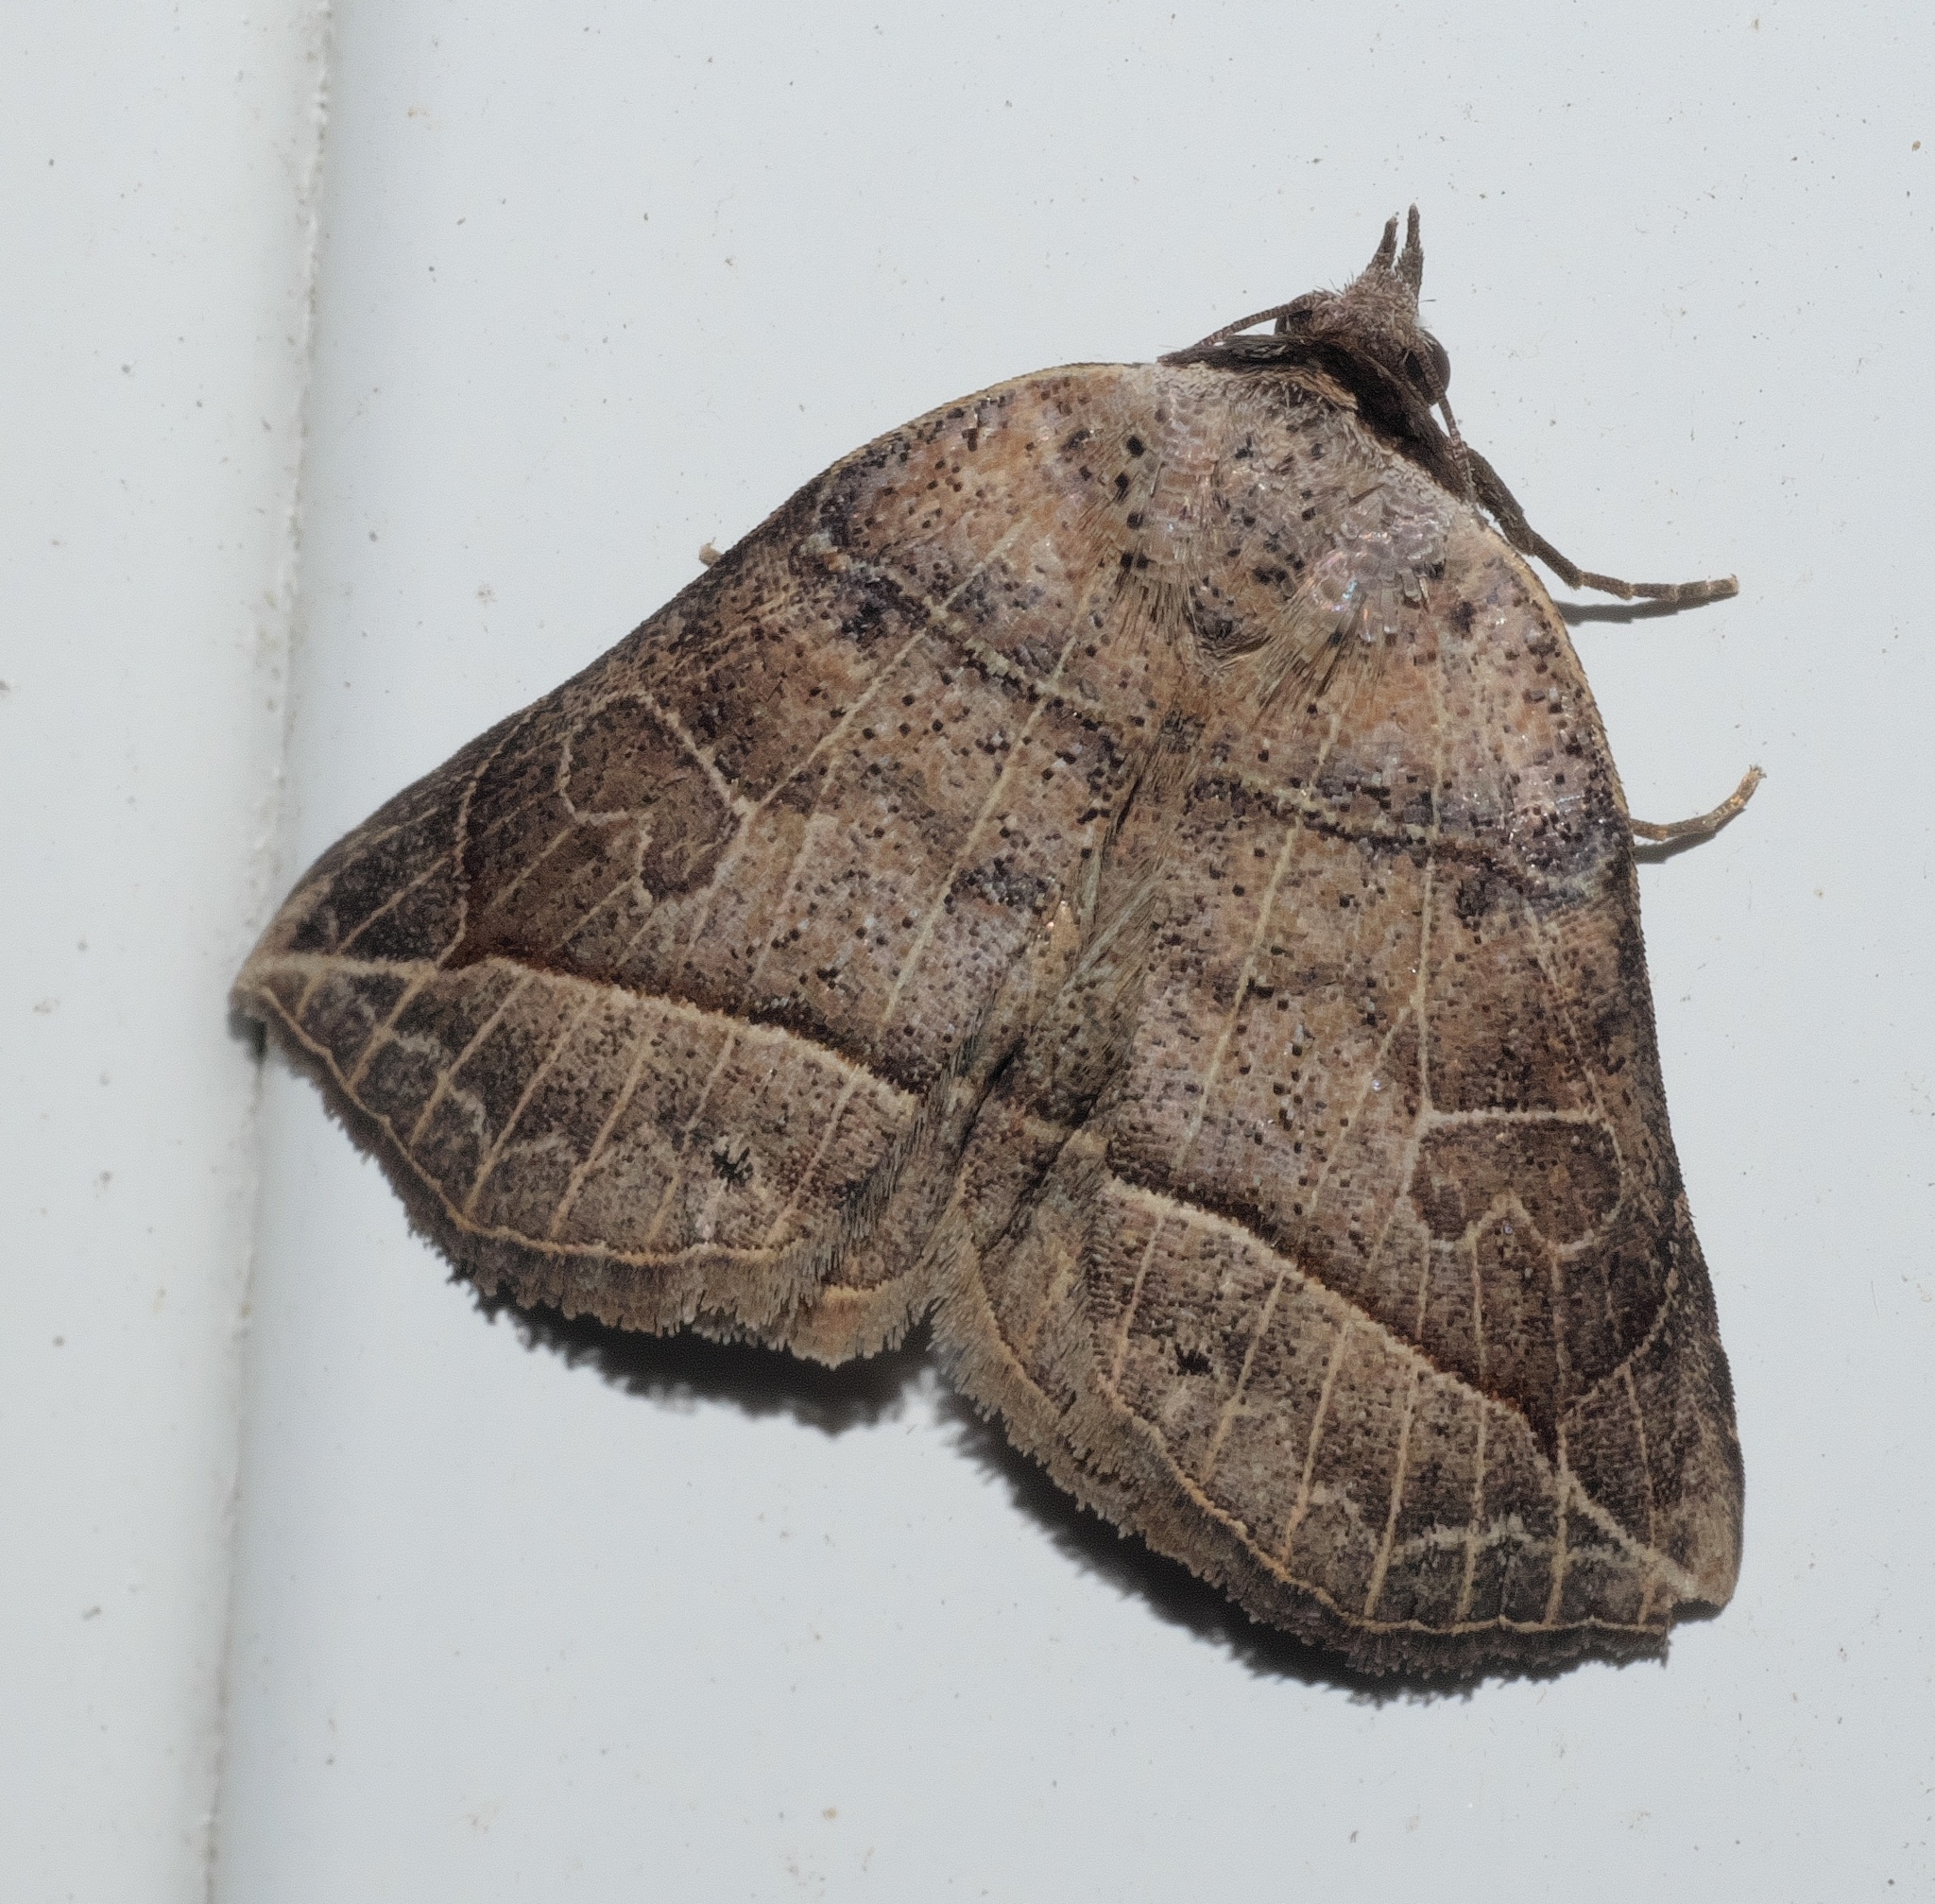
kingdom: Animalia
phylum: Arthropoda
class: Insecta
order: Lepidoptera
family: Erebidae
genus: Isogona
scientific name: Isogona tenuis
